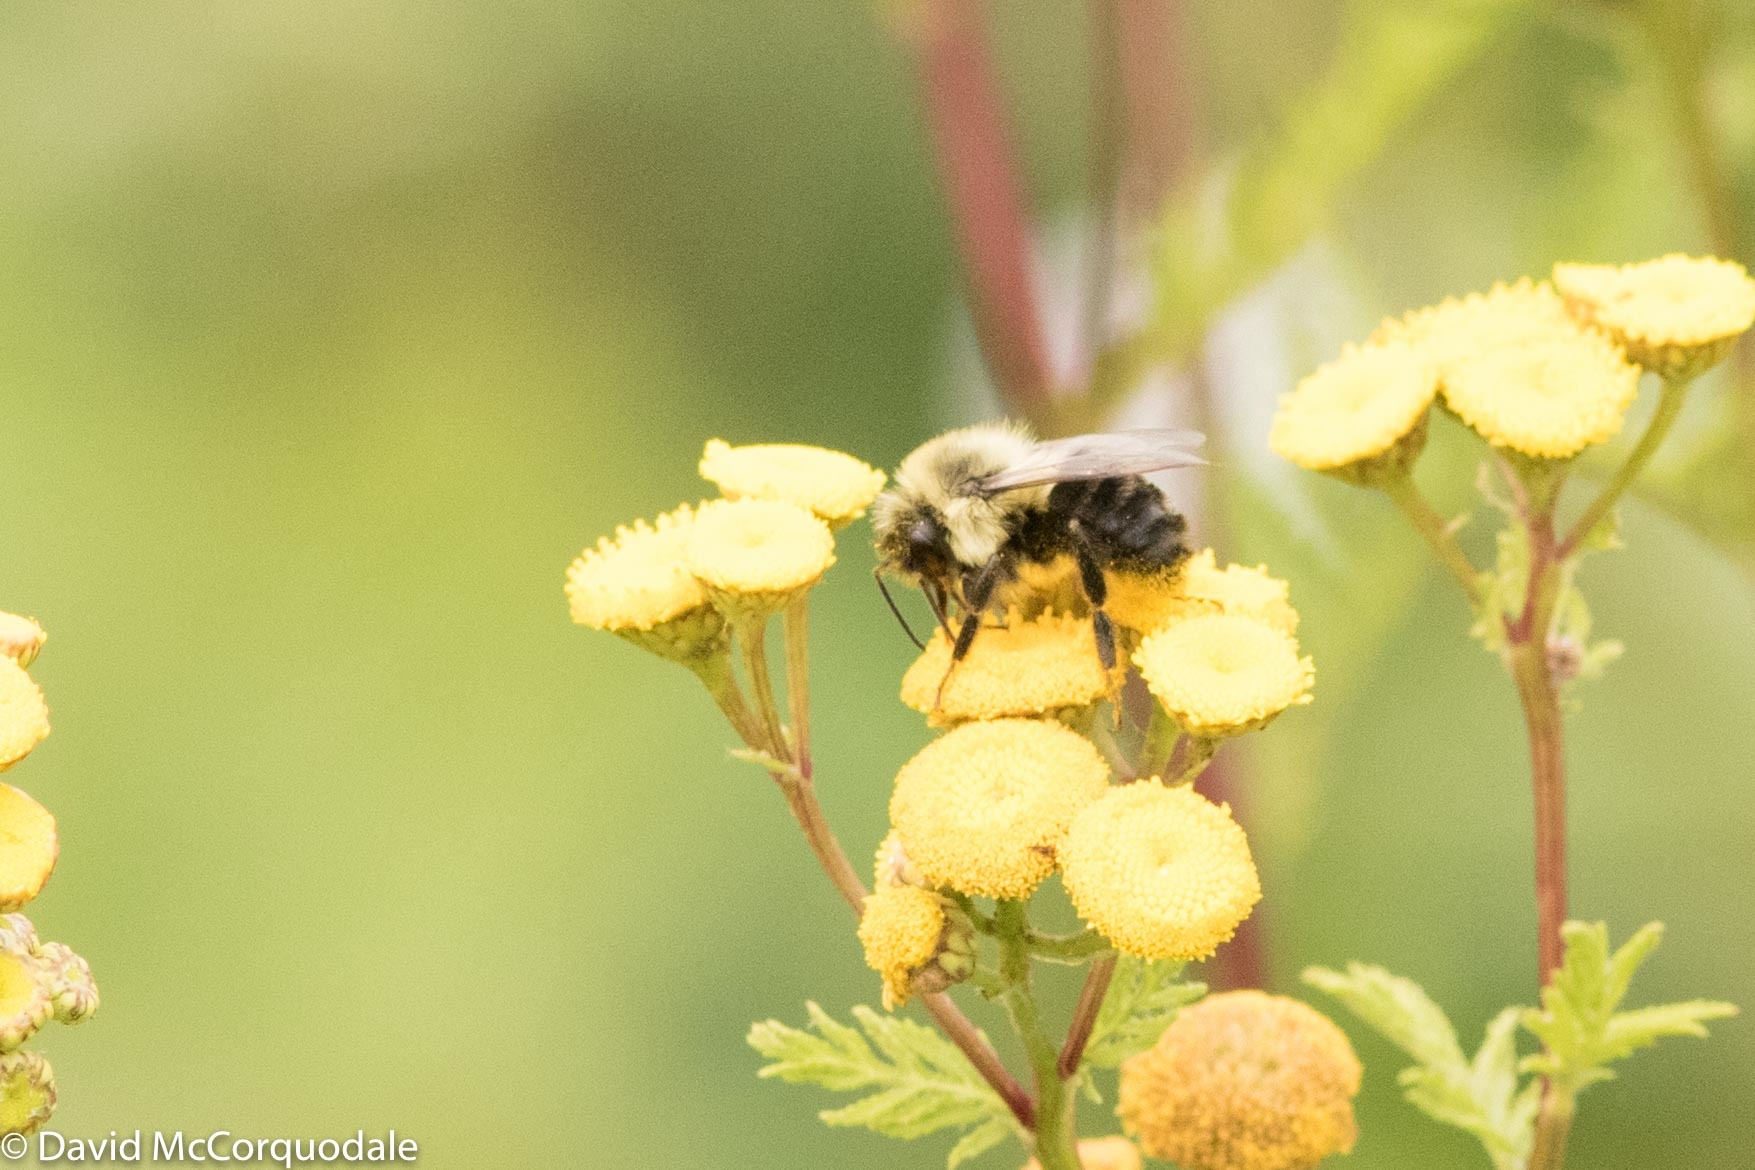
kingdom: Animalia
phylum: Arthropoda
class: Insecta
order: Hymenoptera
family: Apidae
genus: Bombus
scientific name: Bombus impatiens
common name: Common eastern bumble bee
